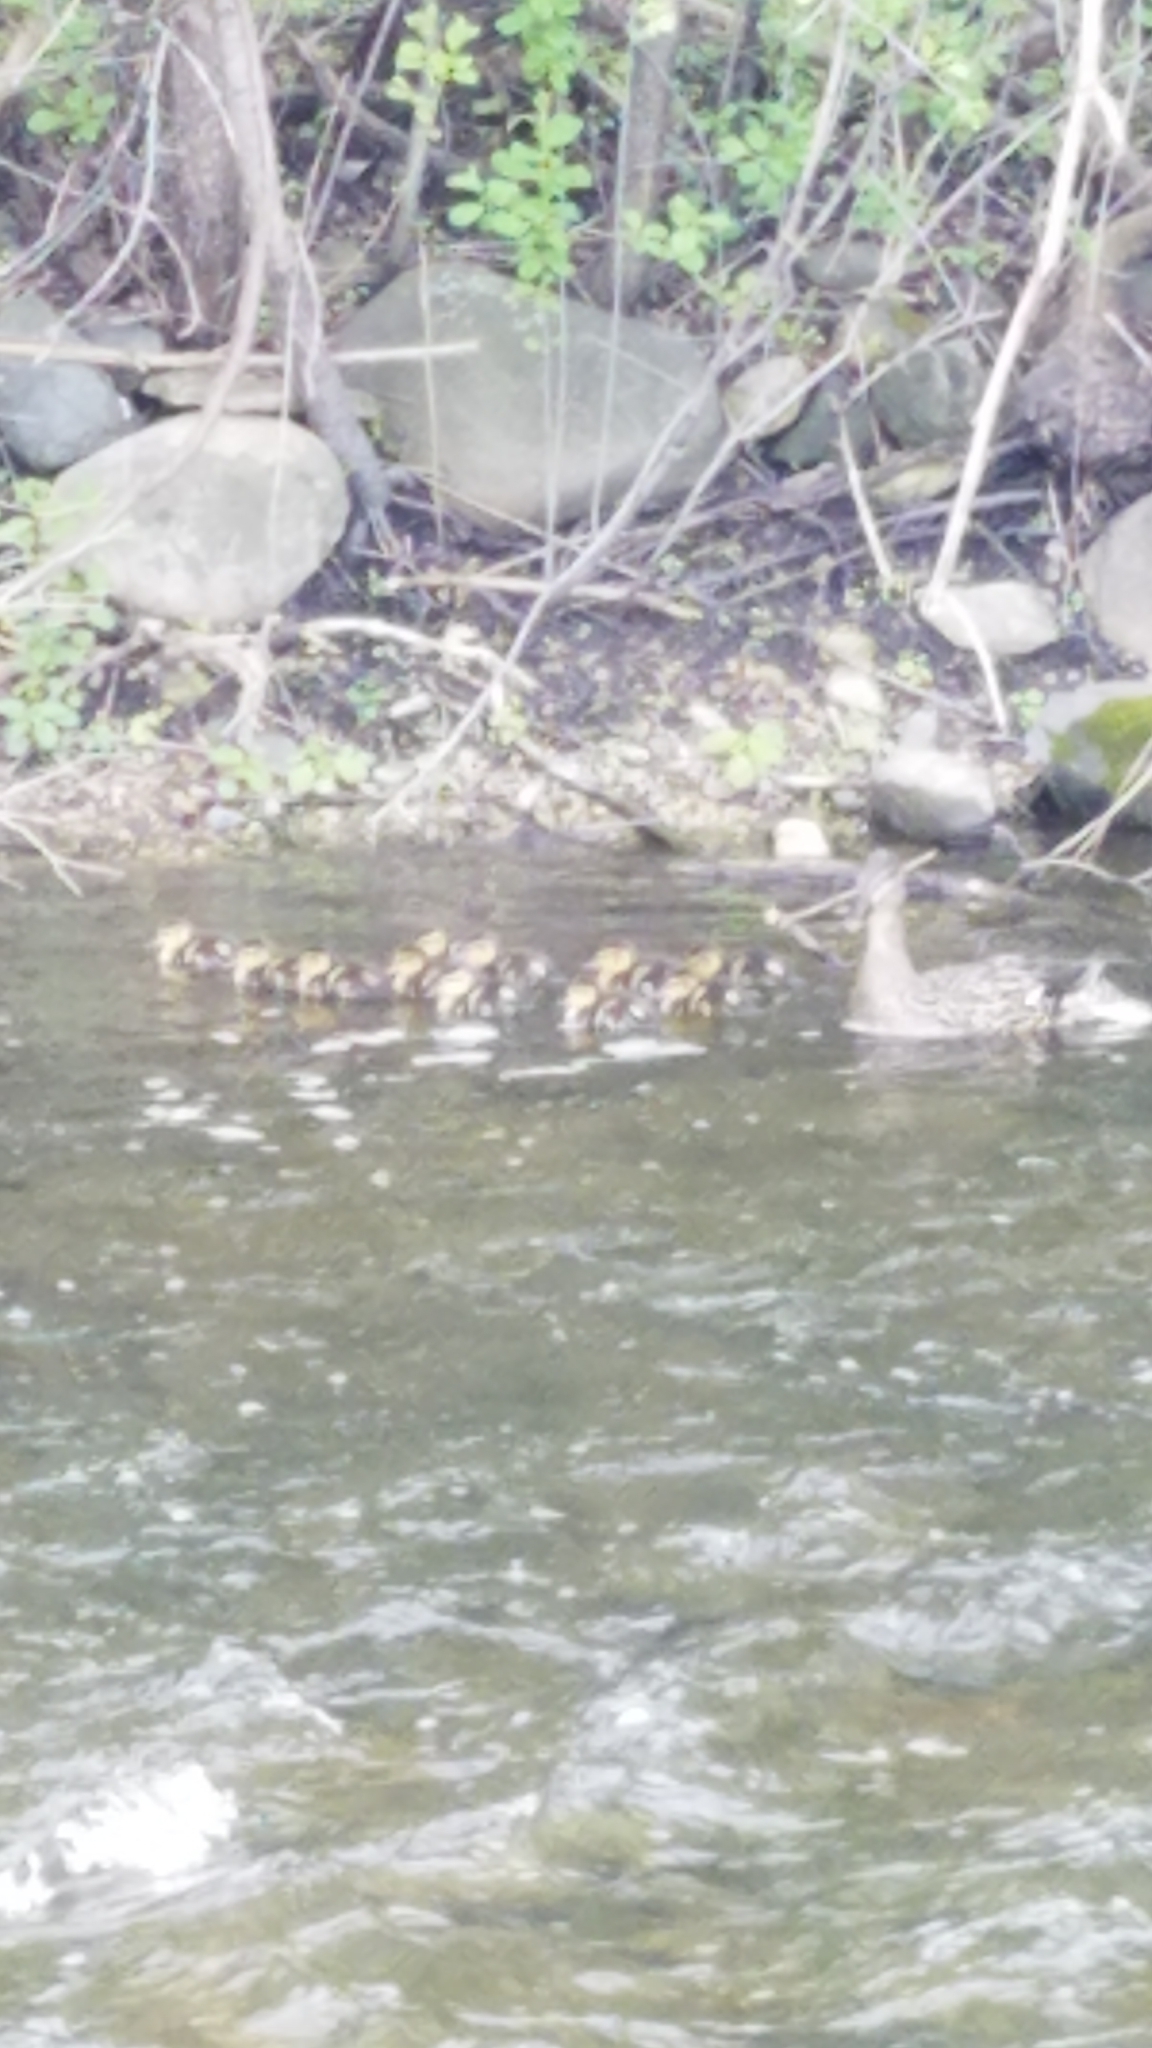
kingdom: Animalia
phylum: Chordata
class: Aves
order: Anseriformes
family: Anatidae
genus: Anas
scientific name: Anas platyrhynchos
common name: Mallard
